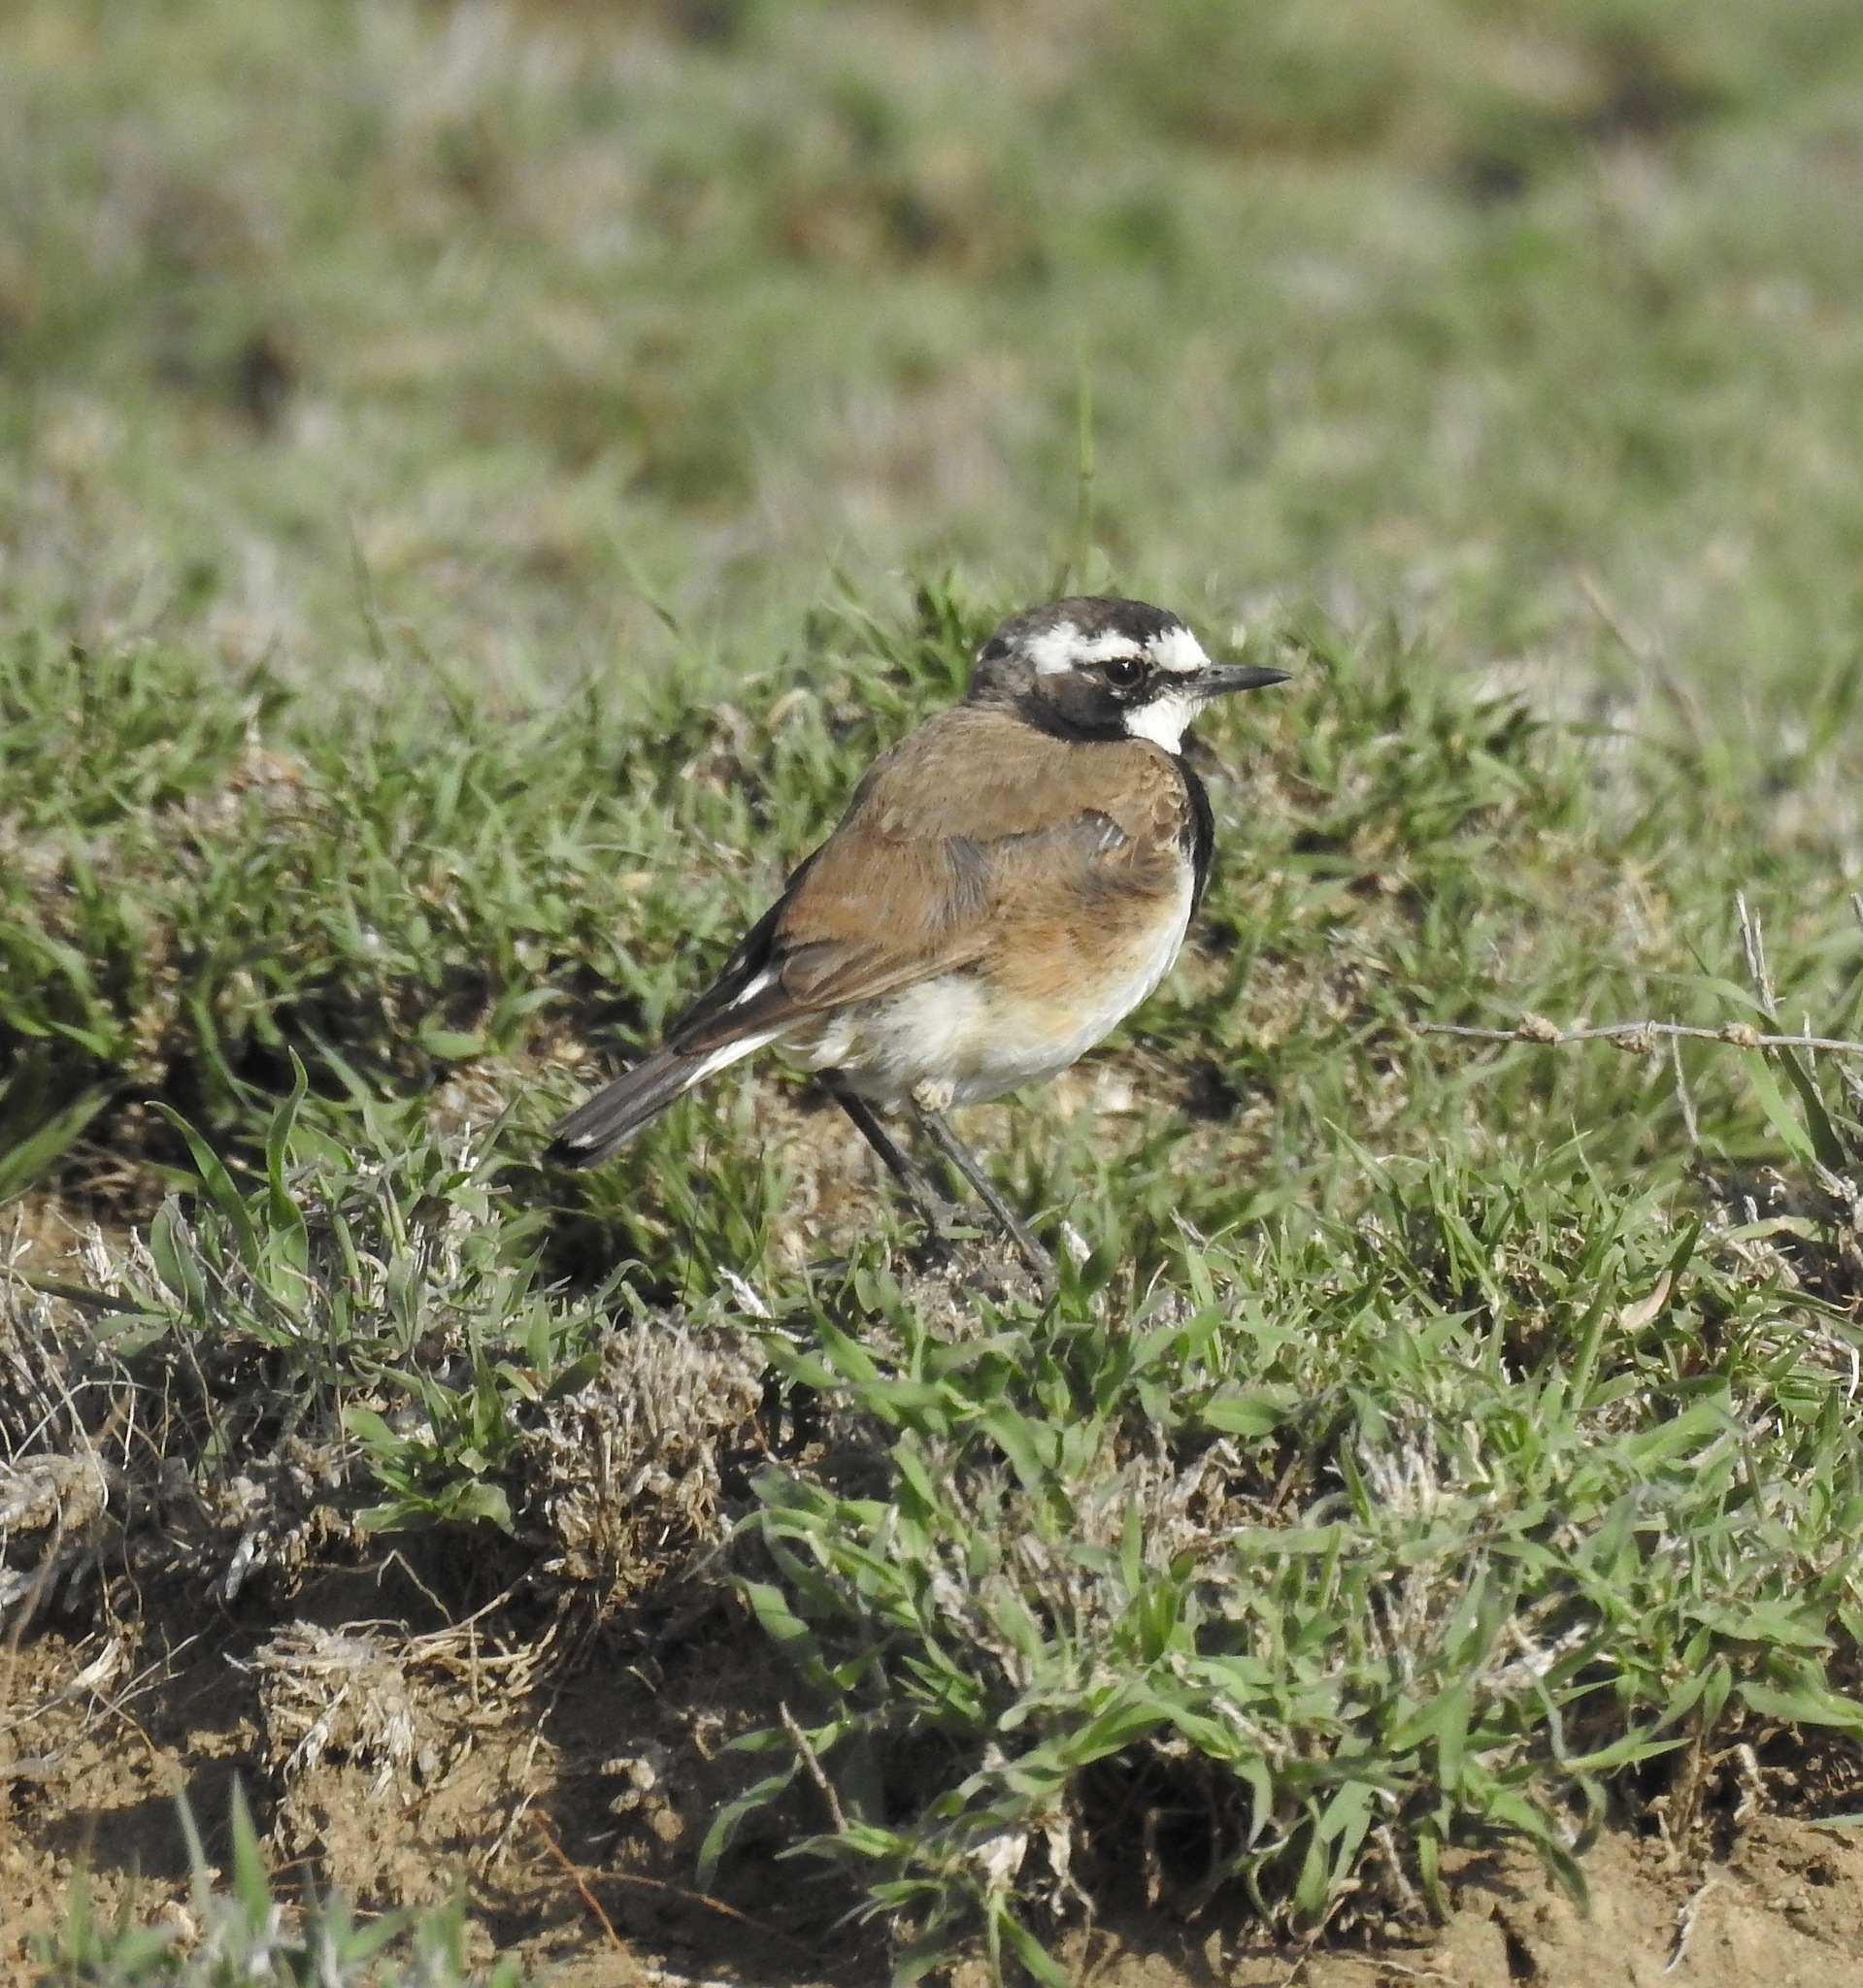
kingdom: Animalia
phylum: Chordata
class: Aves
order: Passeriformes
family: Muscicapidae
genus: Oenanthe
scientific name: Oenanthe pileata
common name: Capped wheatear
